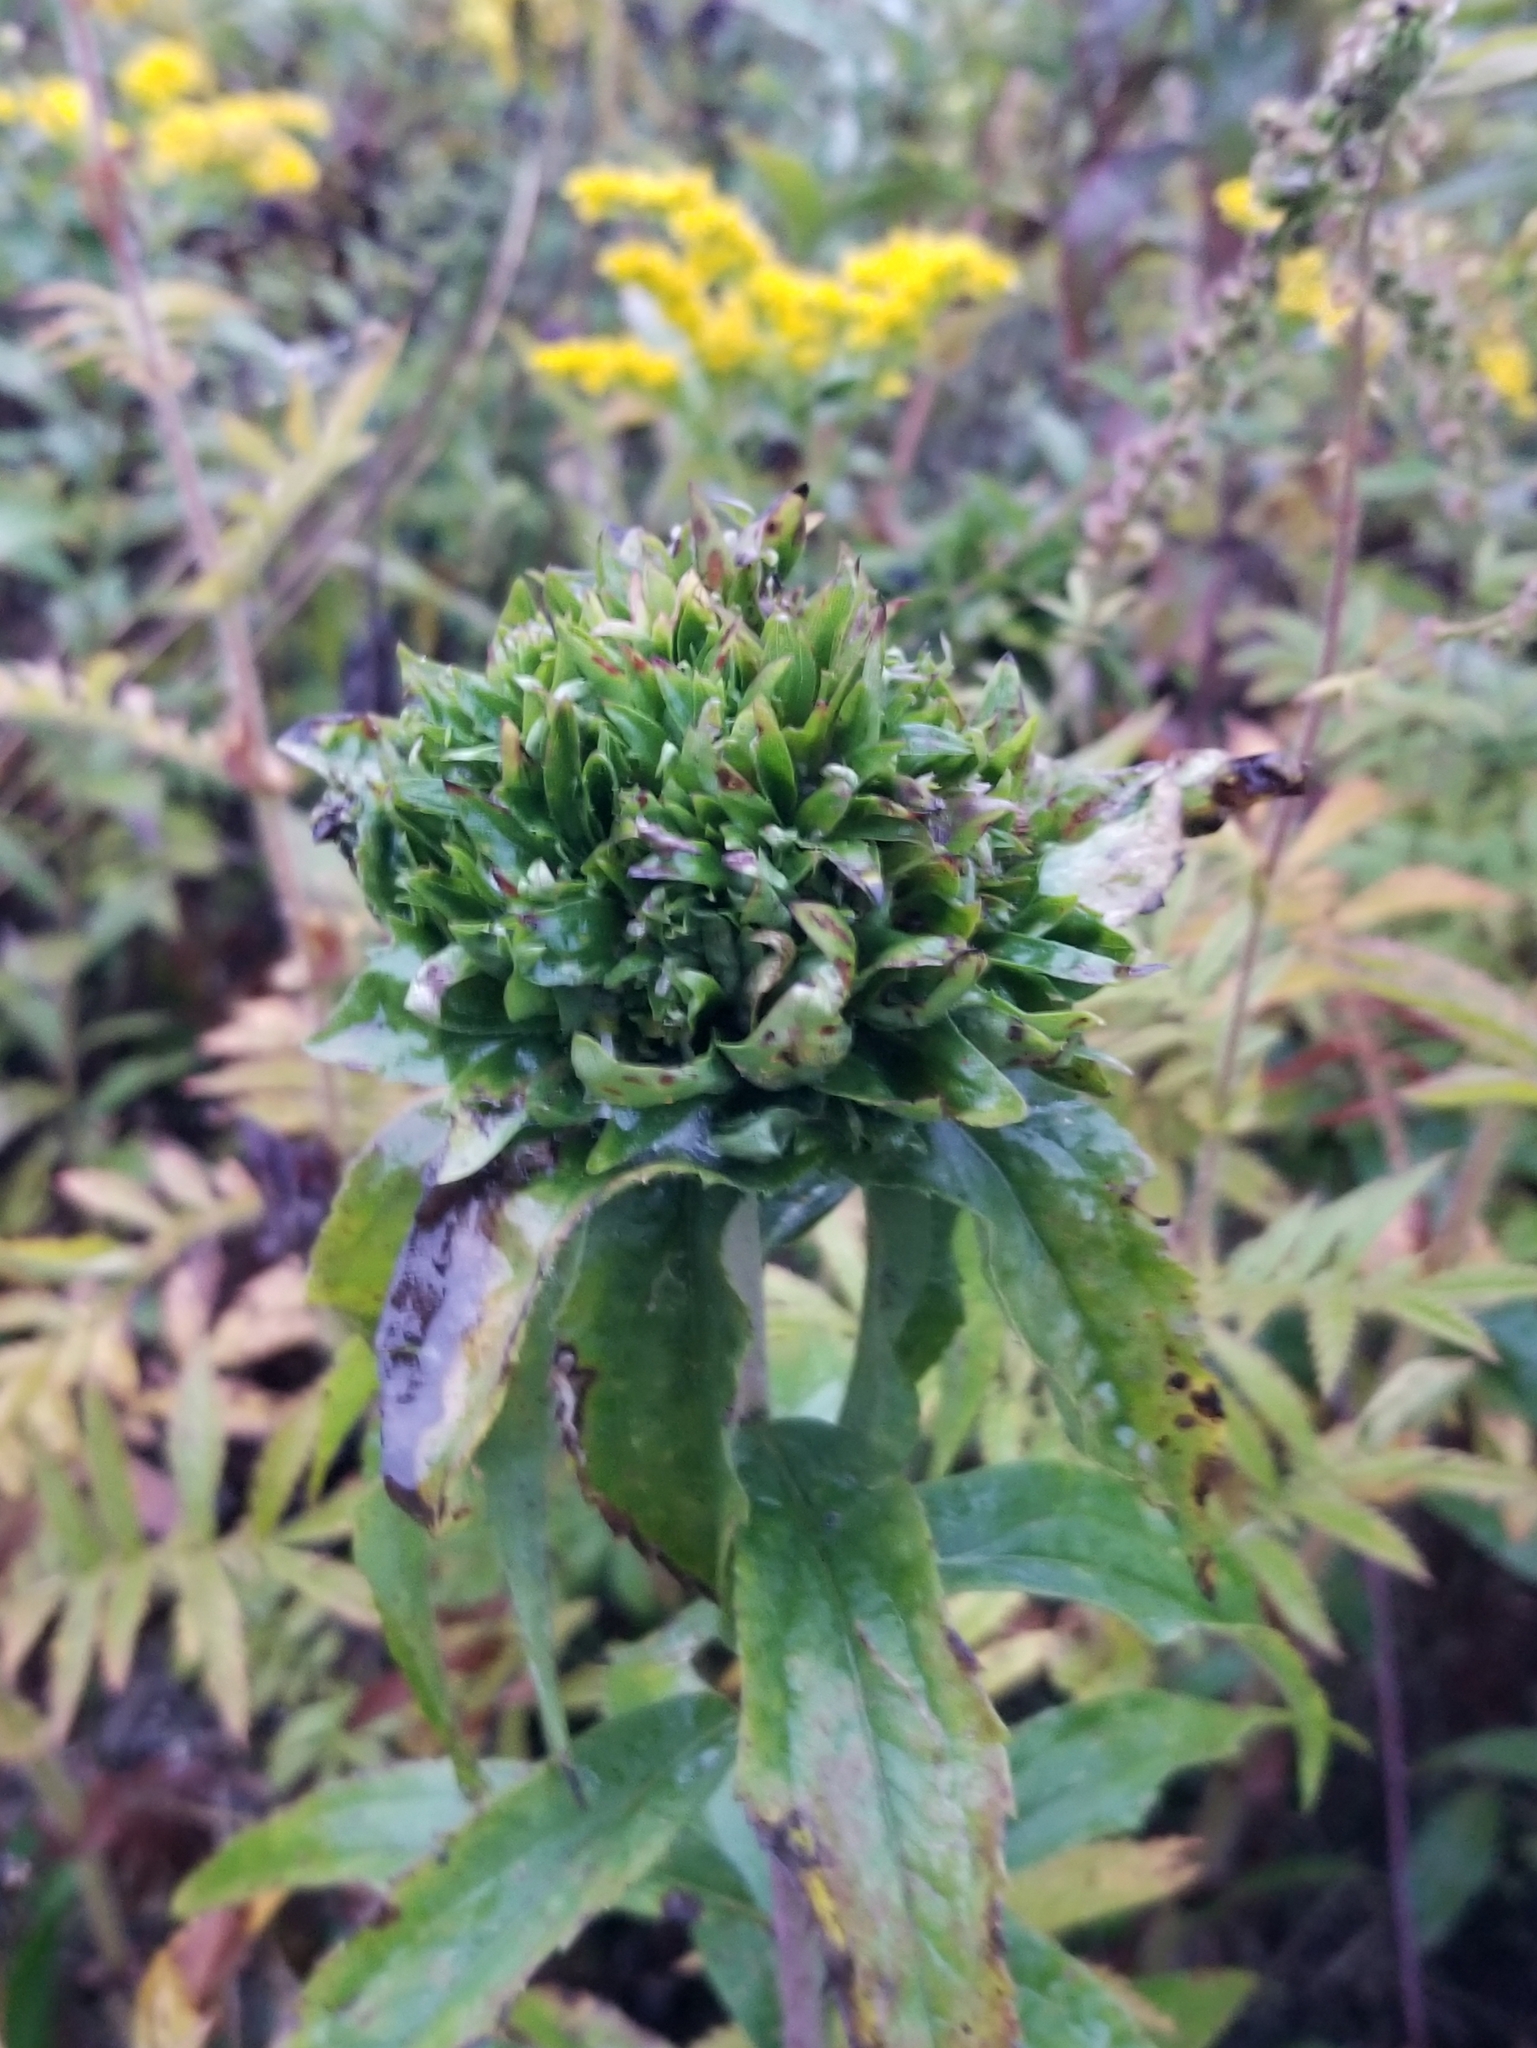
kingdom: Animalia
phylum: Arthropoda
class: Insecta
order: Diptera
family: Cecidomyiidae
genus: Rhopalomyia
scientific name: Rhopalomyia capitata
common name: Giant goldenrod bunch gall midge
